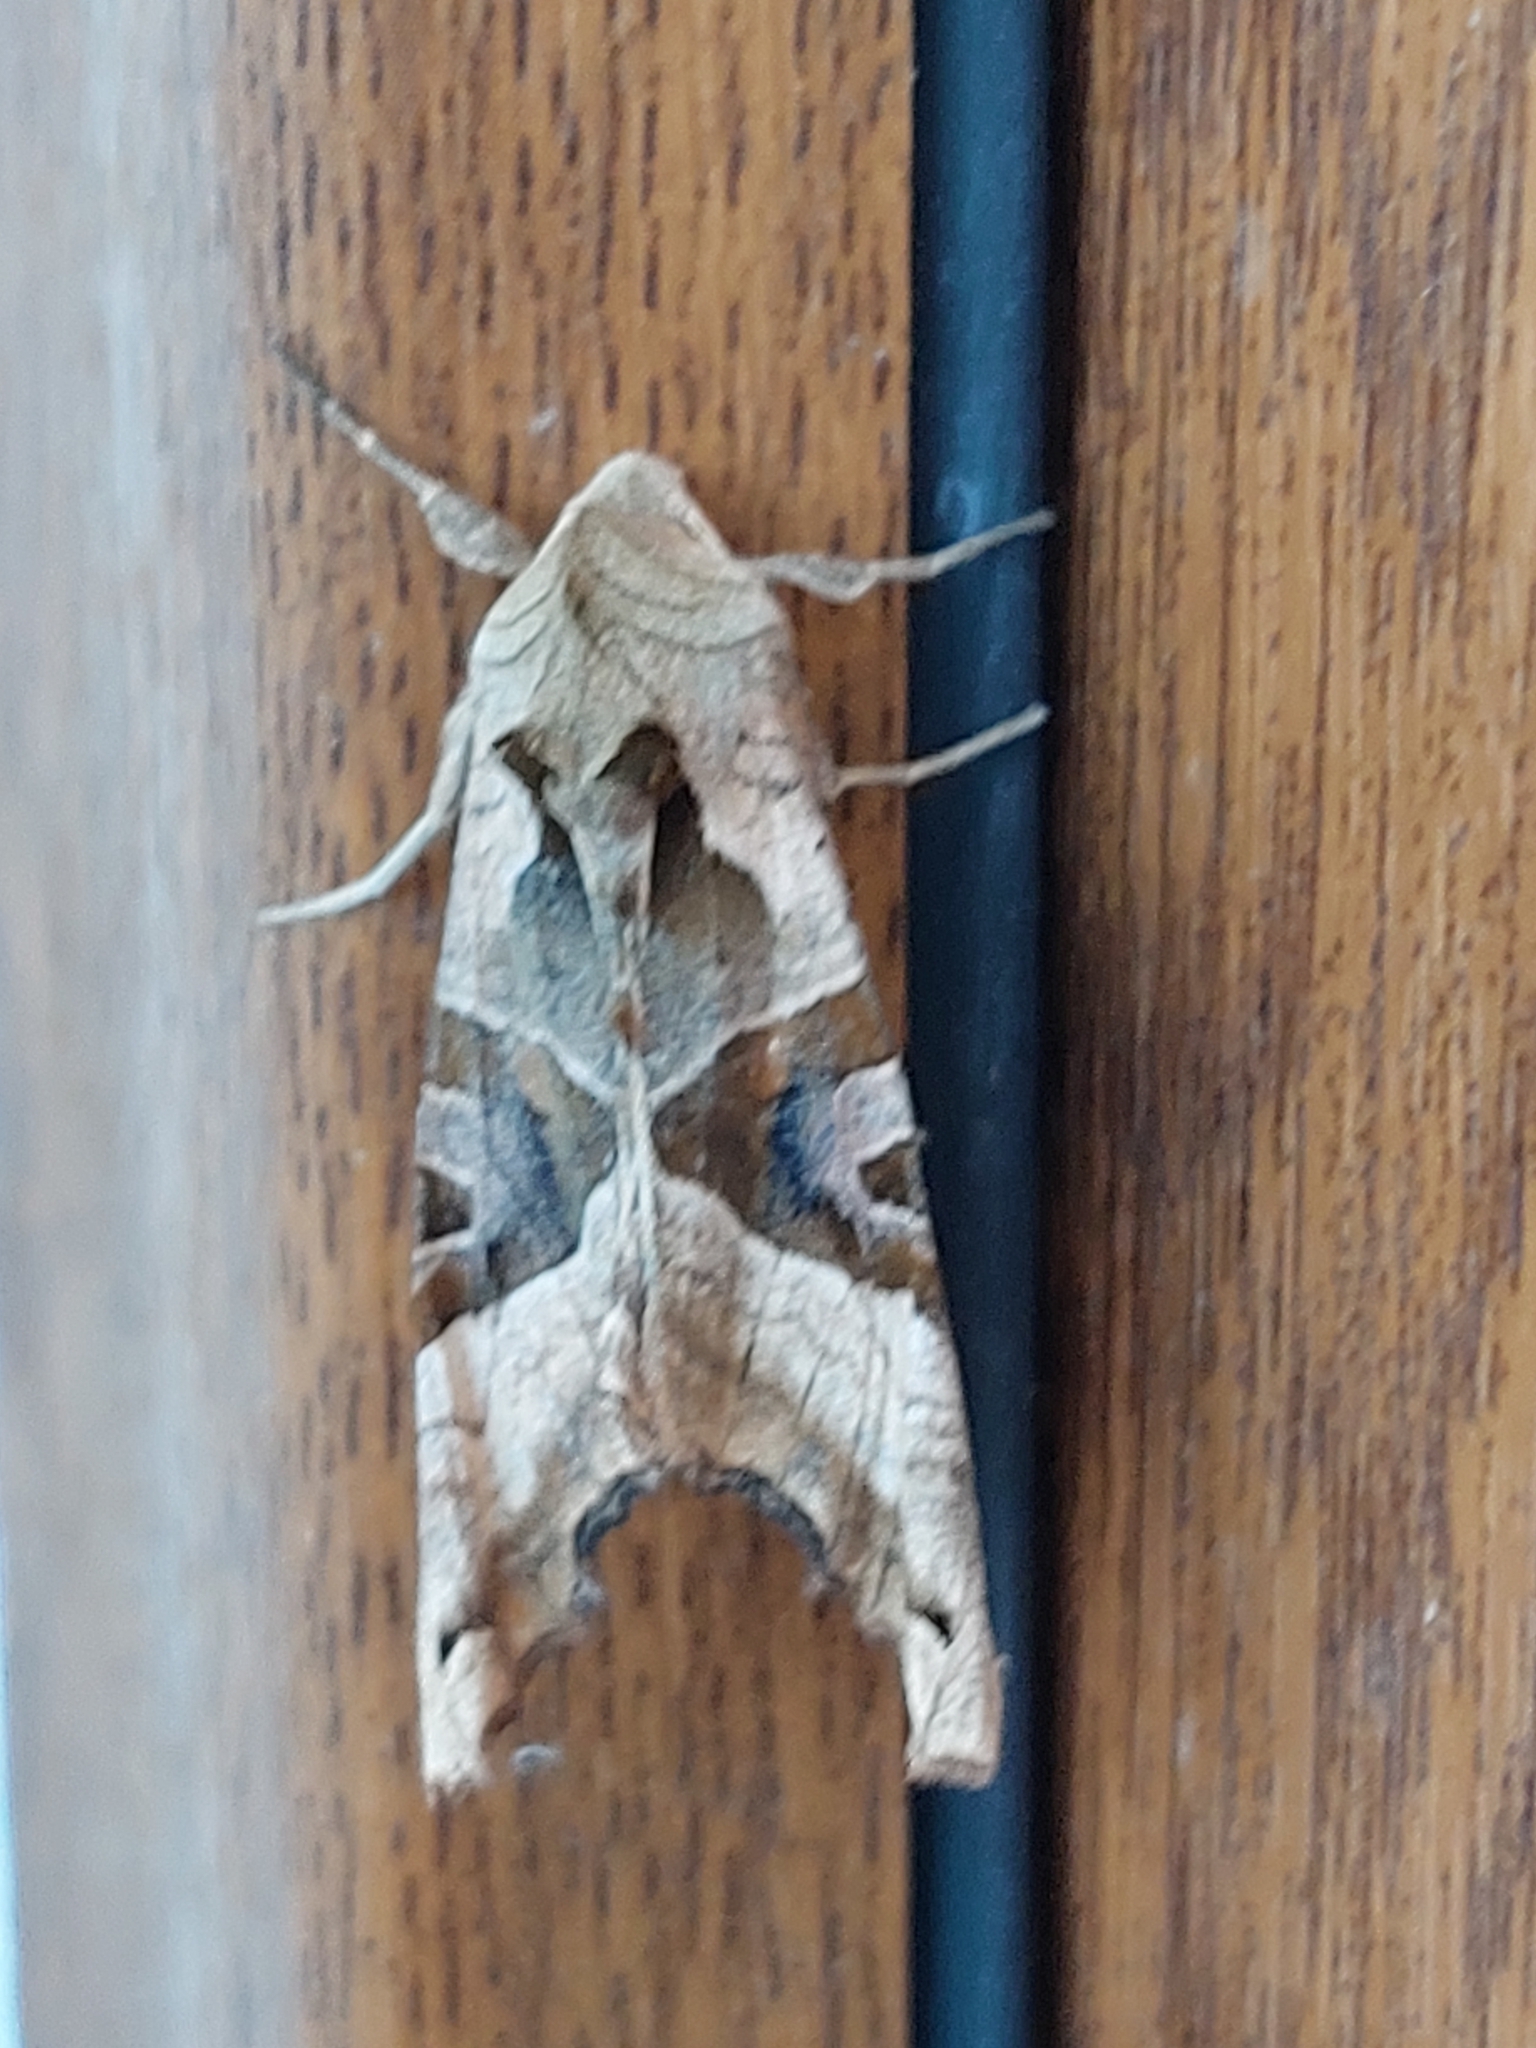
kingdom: Animalia
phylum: Arthropoda
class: Insecta
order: Lepidoptera
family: Noctuidae
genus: Phlogophora
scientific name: Phlogophora meticulosa
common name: Angle shades
